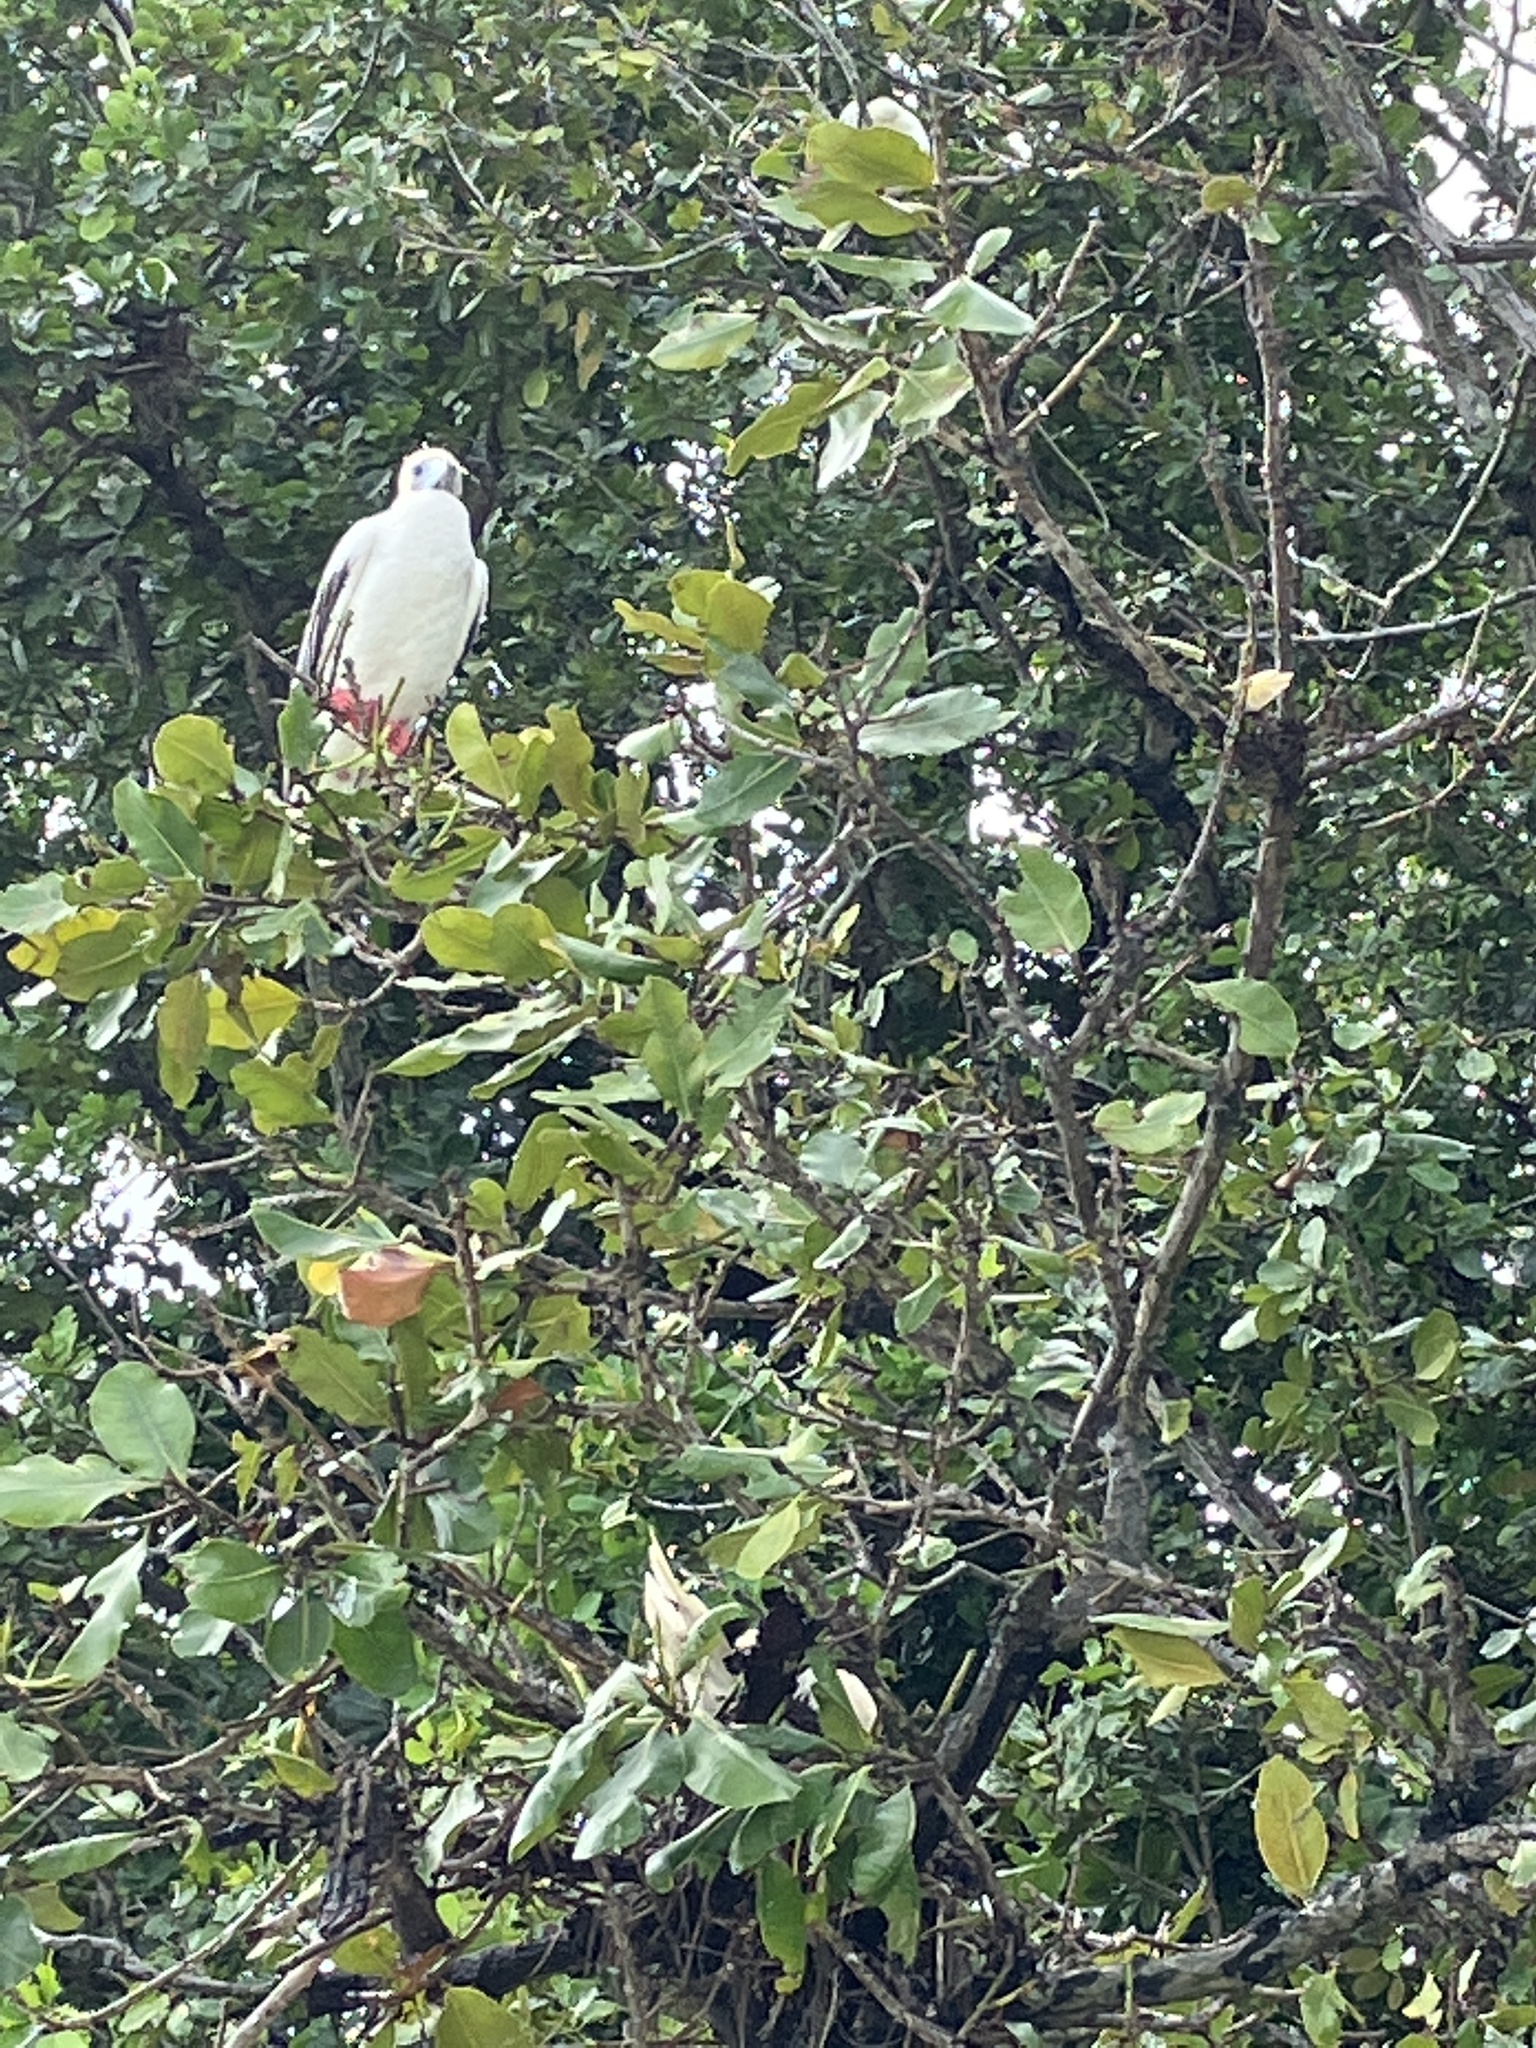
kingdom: Animalia
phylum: Chordata
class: Aves
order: Suliformes
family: Sulidae
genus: Sula
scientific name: Sula sula
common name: Red-footed booby
